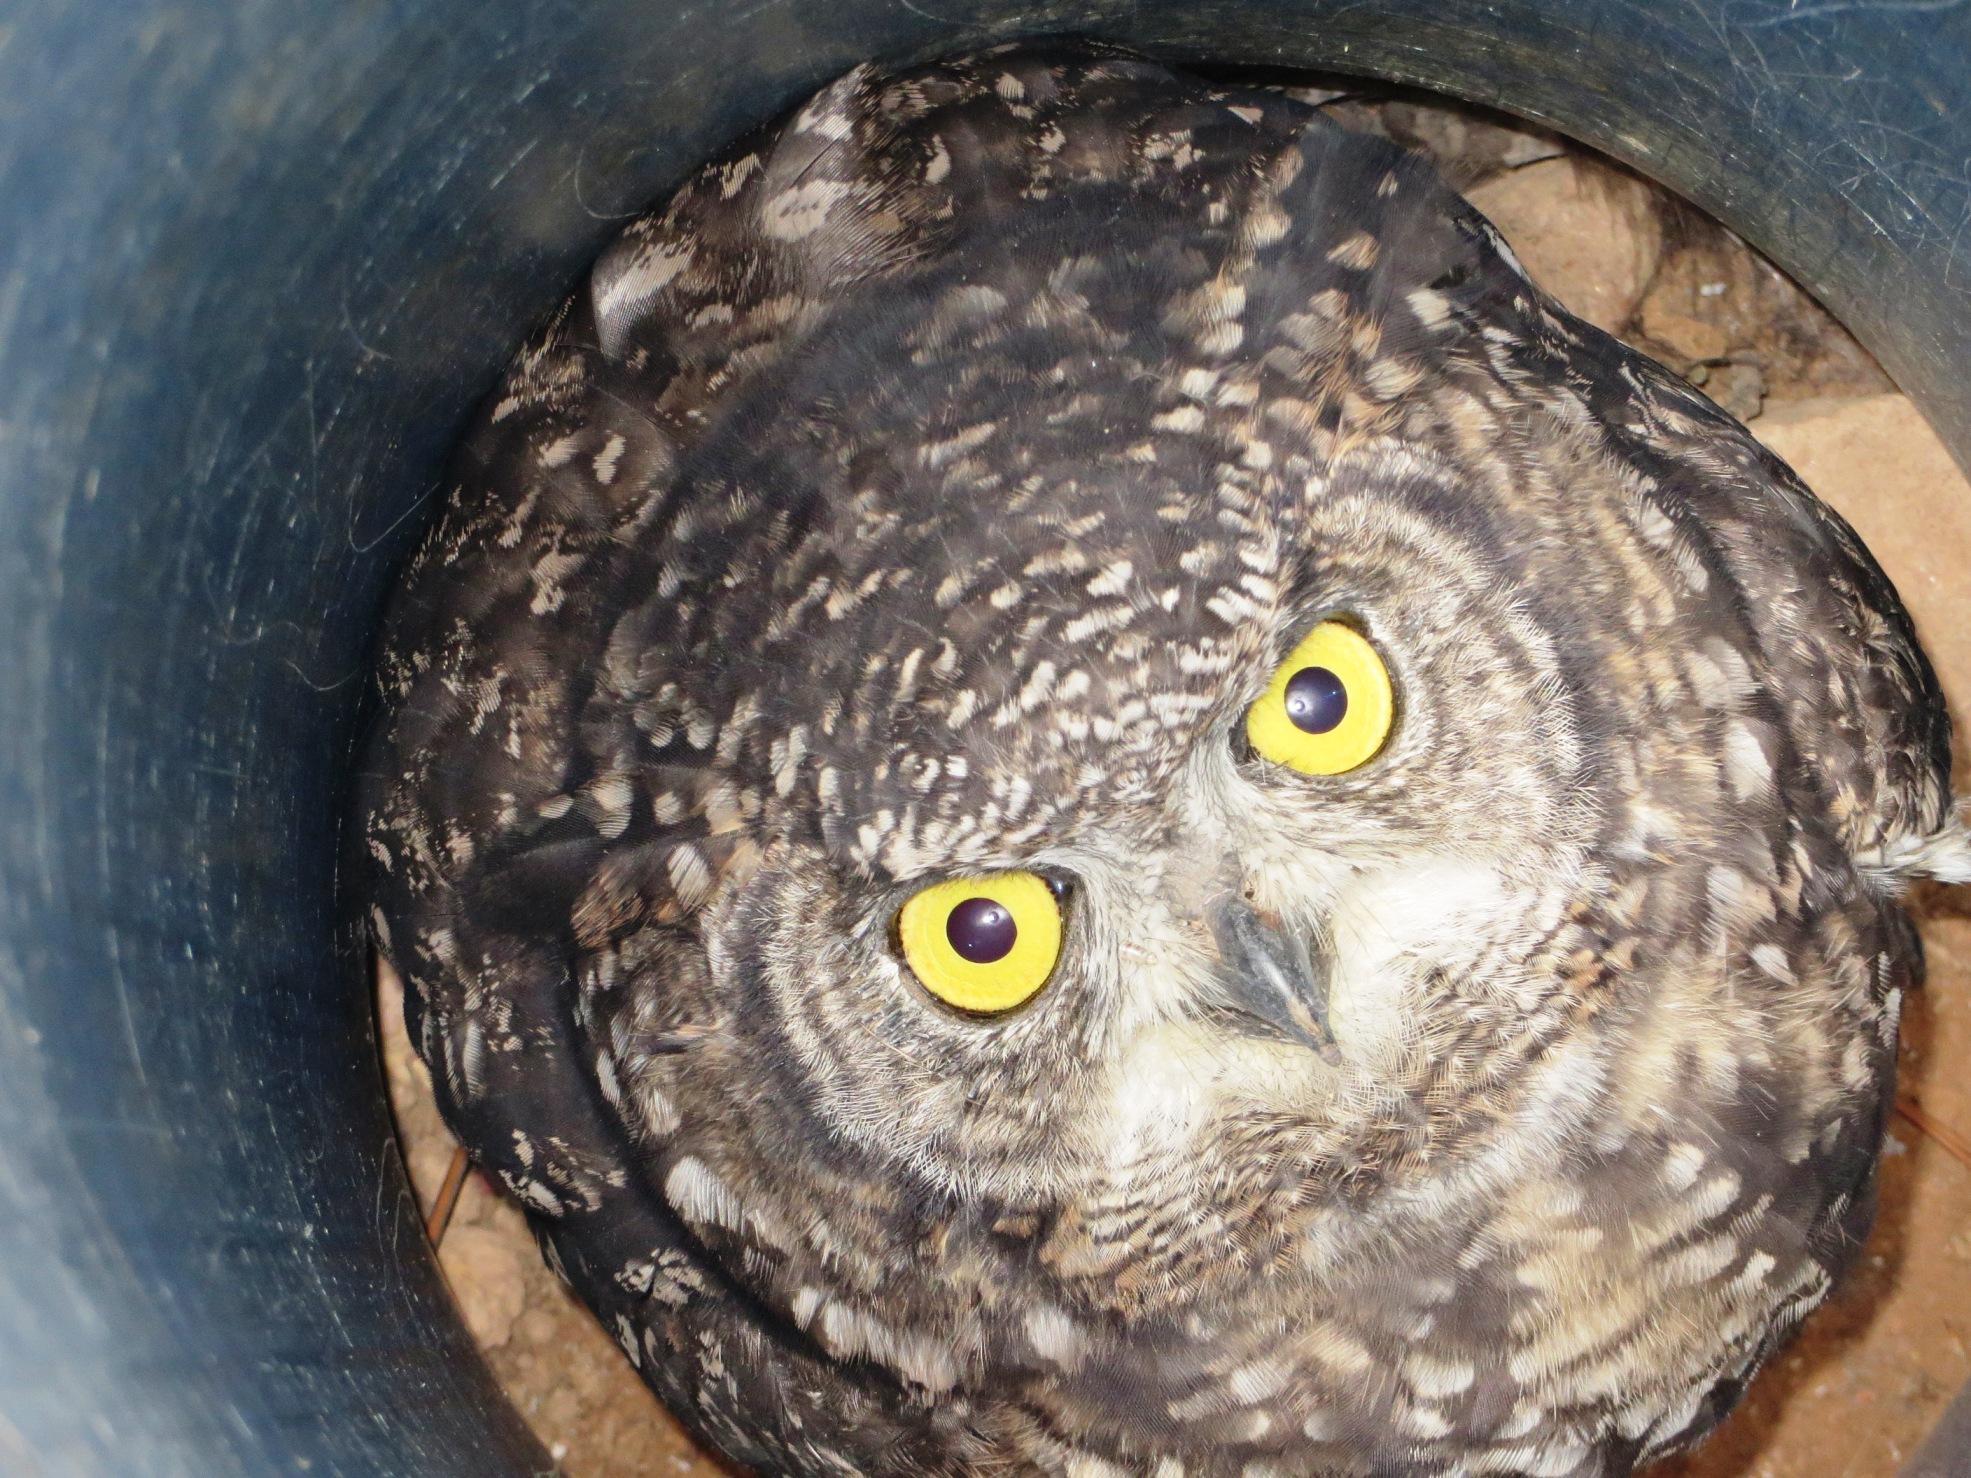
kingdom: Animalia
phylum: Chordata
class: Aves
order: Strigiformes
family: Strigidae
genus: Bubo
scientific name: Bubo africanus
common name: Spotted eagle-owl
